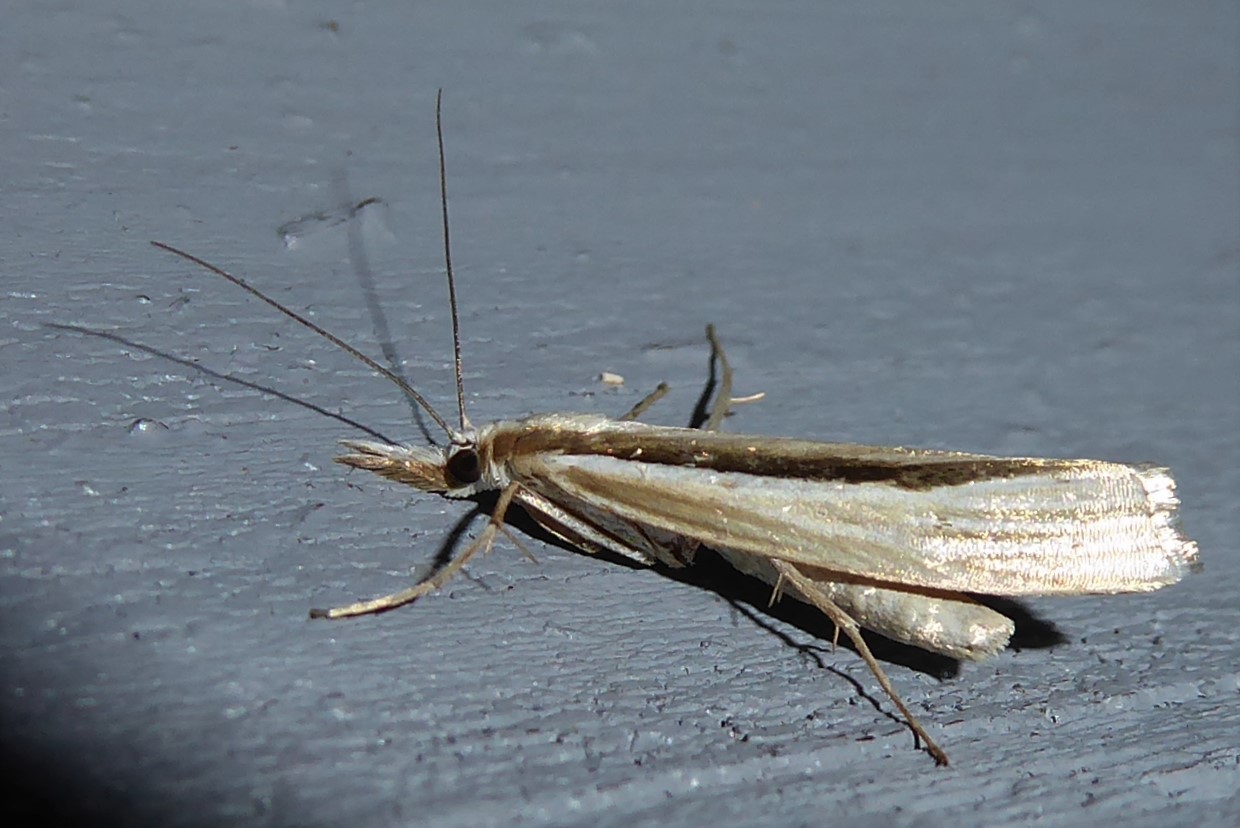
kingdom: Animalia
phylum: Arthropoda
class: Insecta
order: Lepidoptera
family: Crambidae
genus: Orocrambus
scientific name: Orocrambus ramosellus
